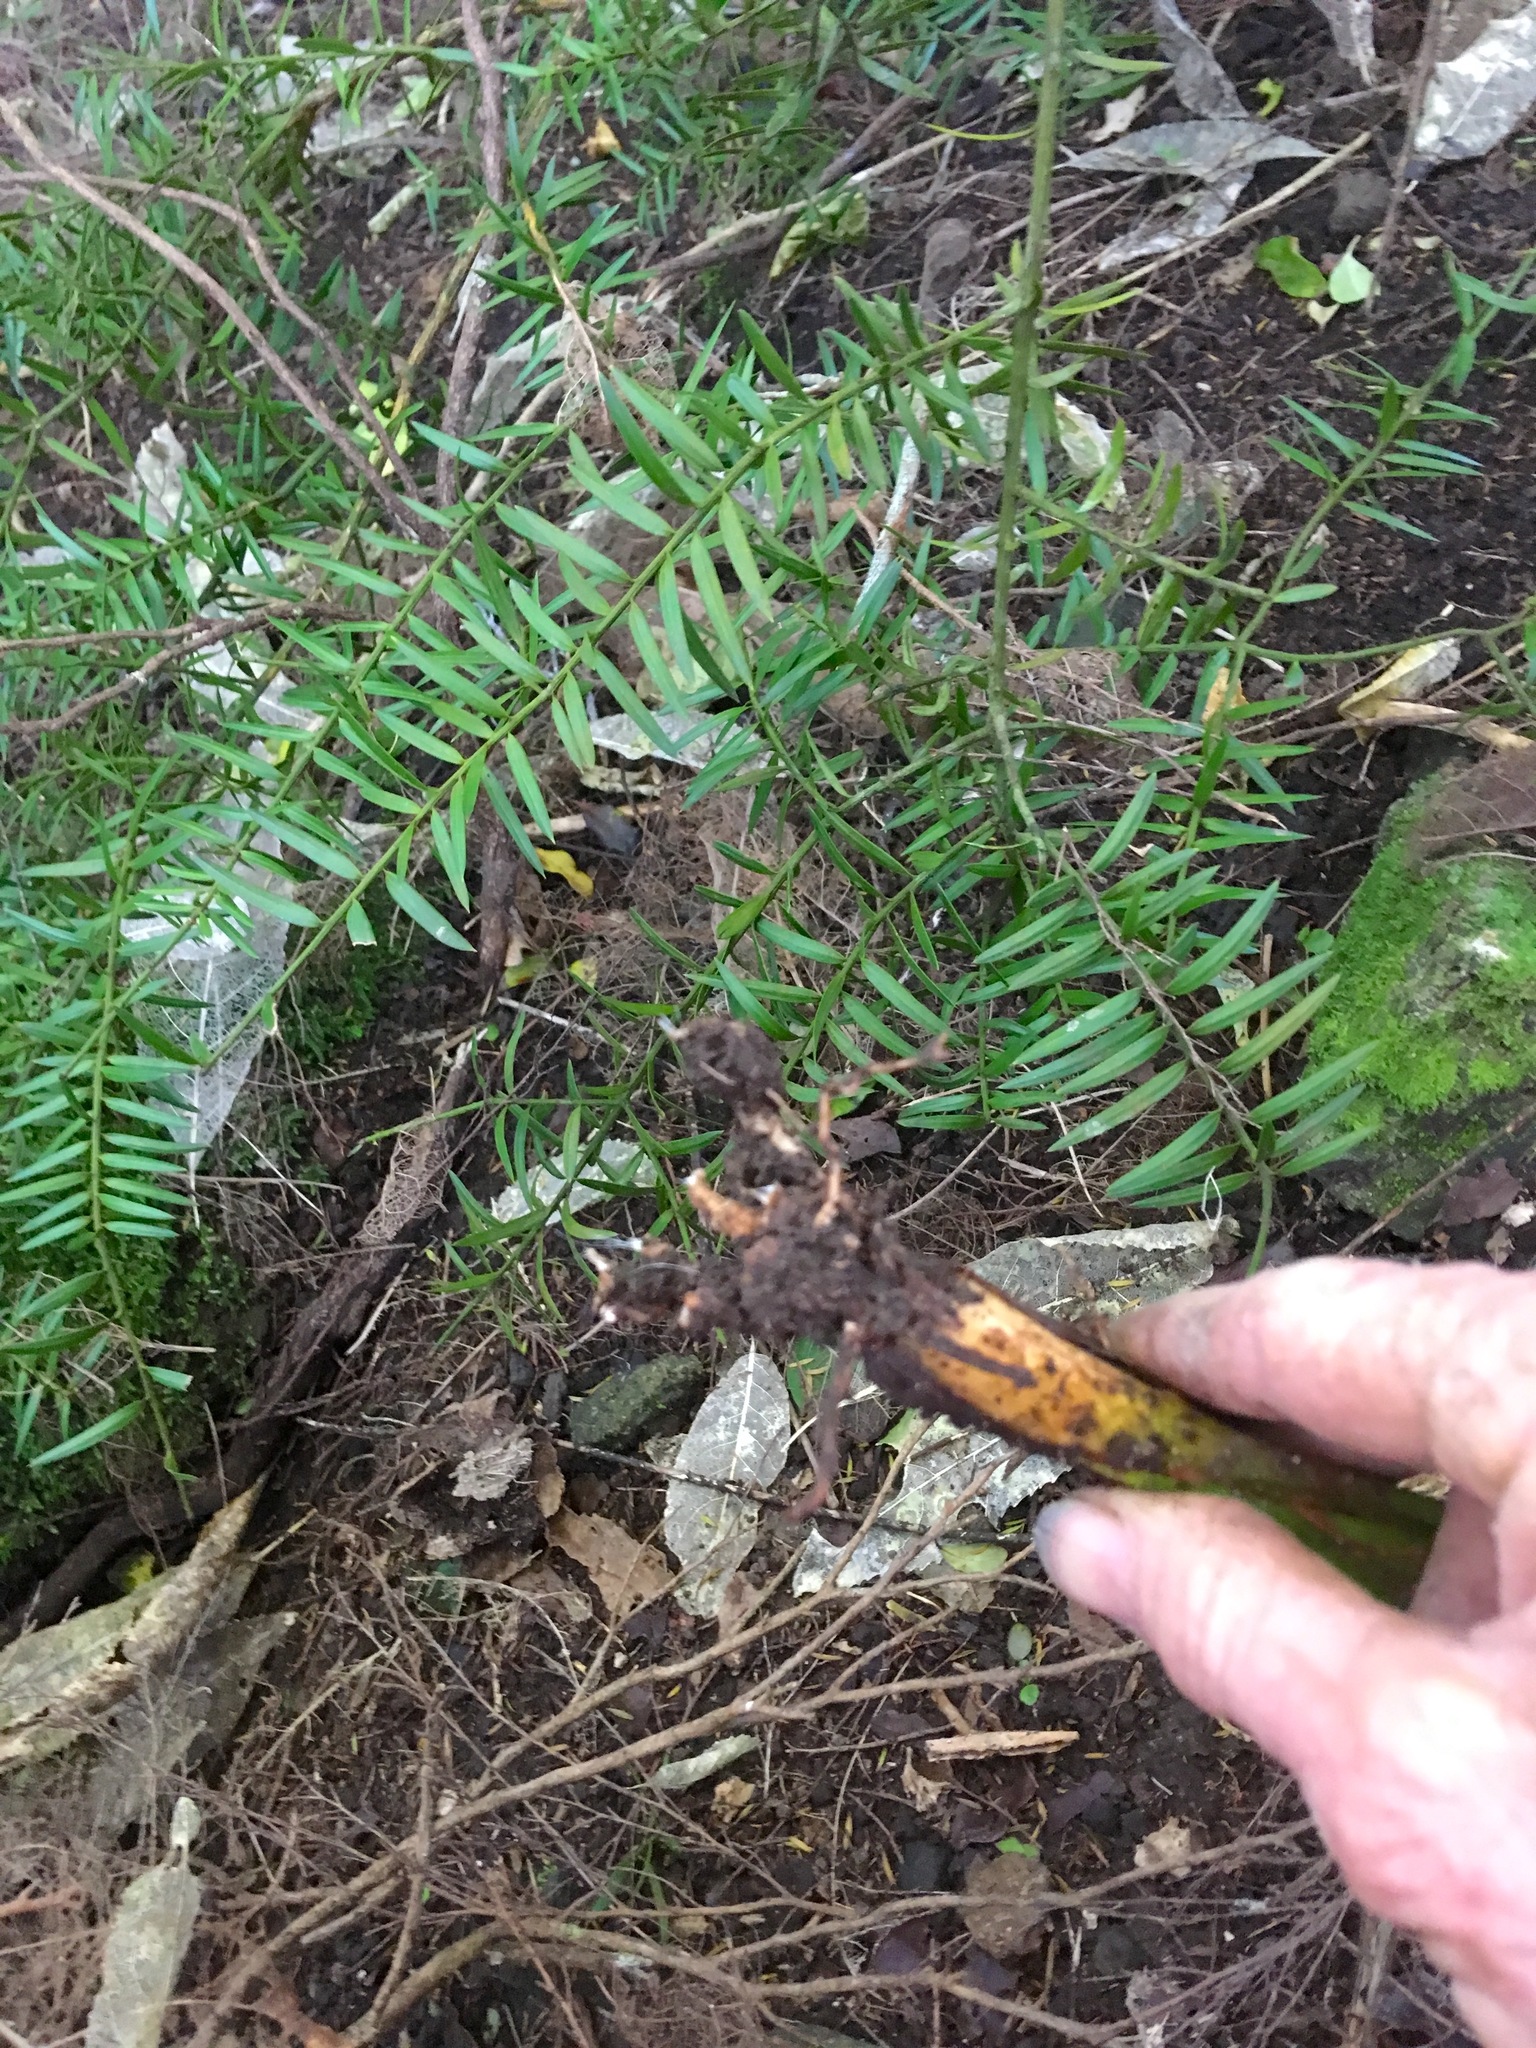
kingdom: Plantae
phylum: Tracheophyta
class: Liliopsida
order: Arecales
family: Arecaceae
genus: Phoenix
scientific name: Phoenix canariensis
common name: Canary island date palm
